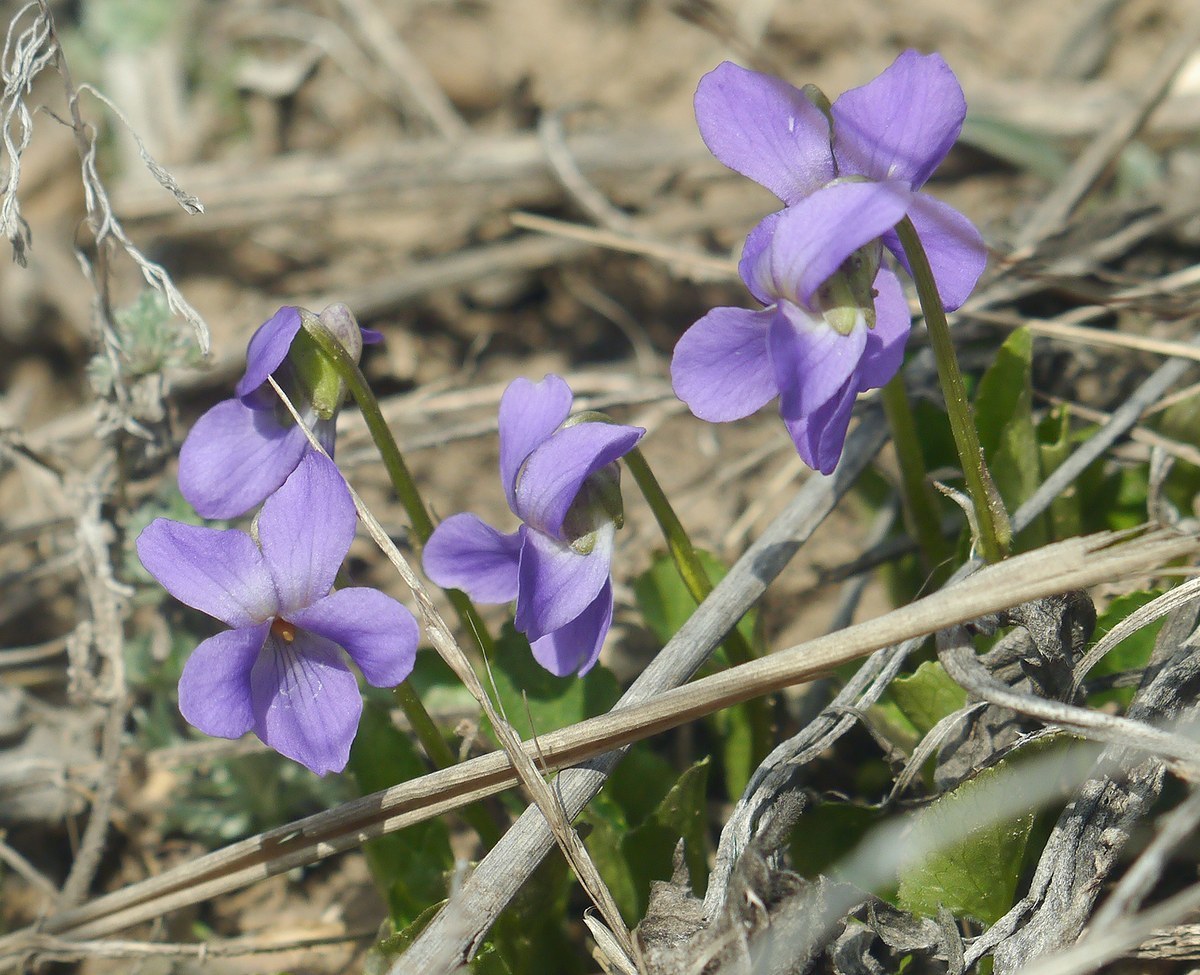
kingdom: Plantae
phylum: Tracheophyta
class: Magnoliopsida
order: Malpighiales
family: Violaceae
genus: Viola
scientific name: Viola ambigua
